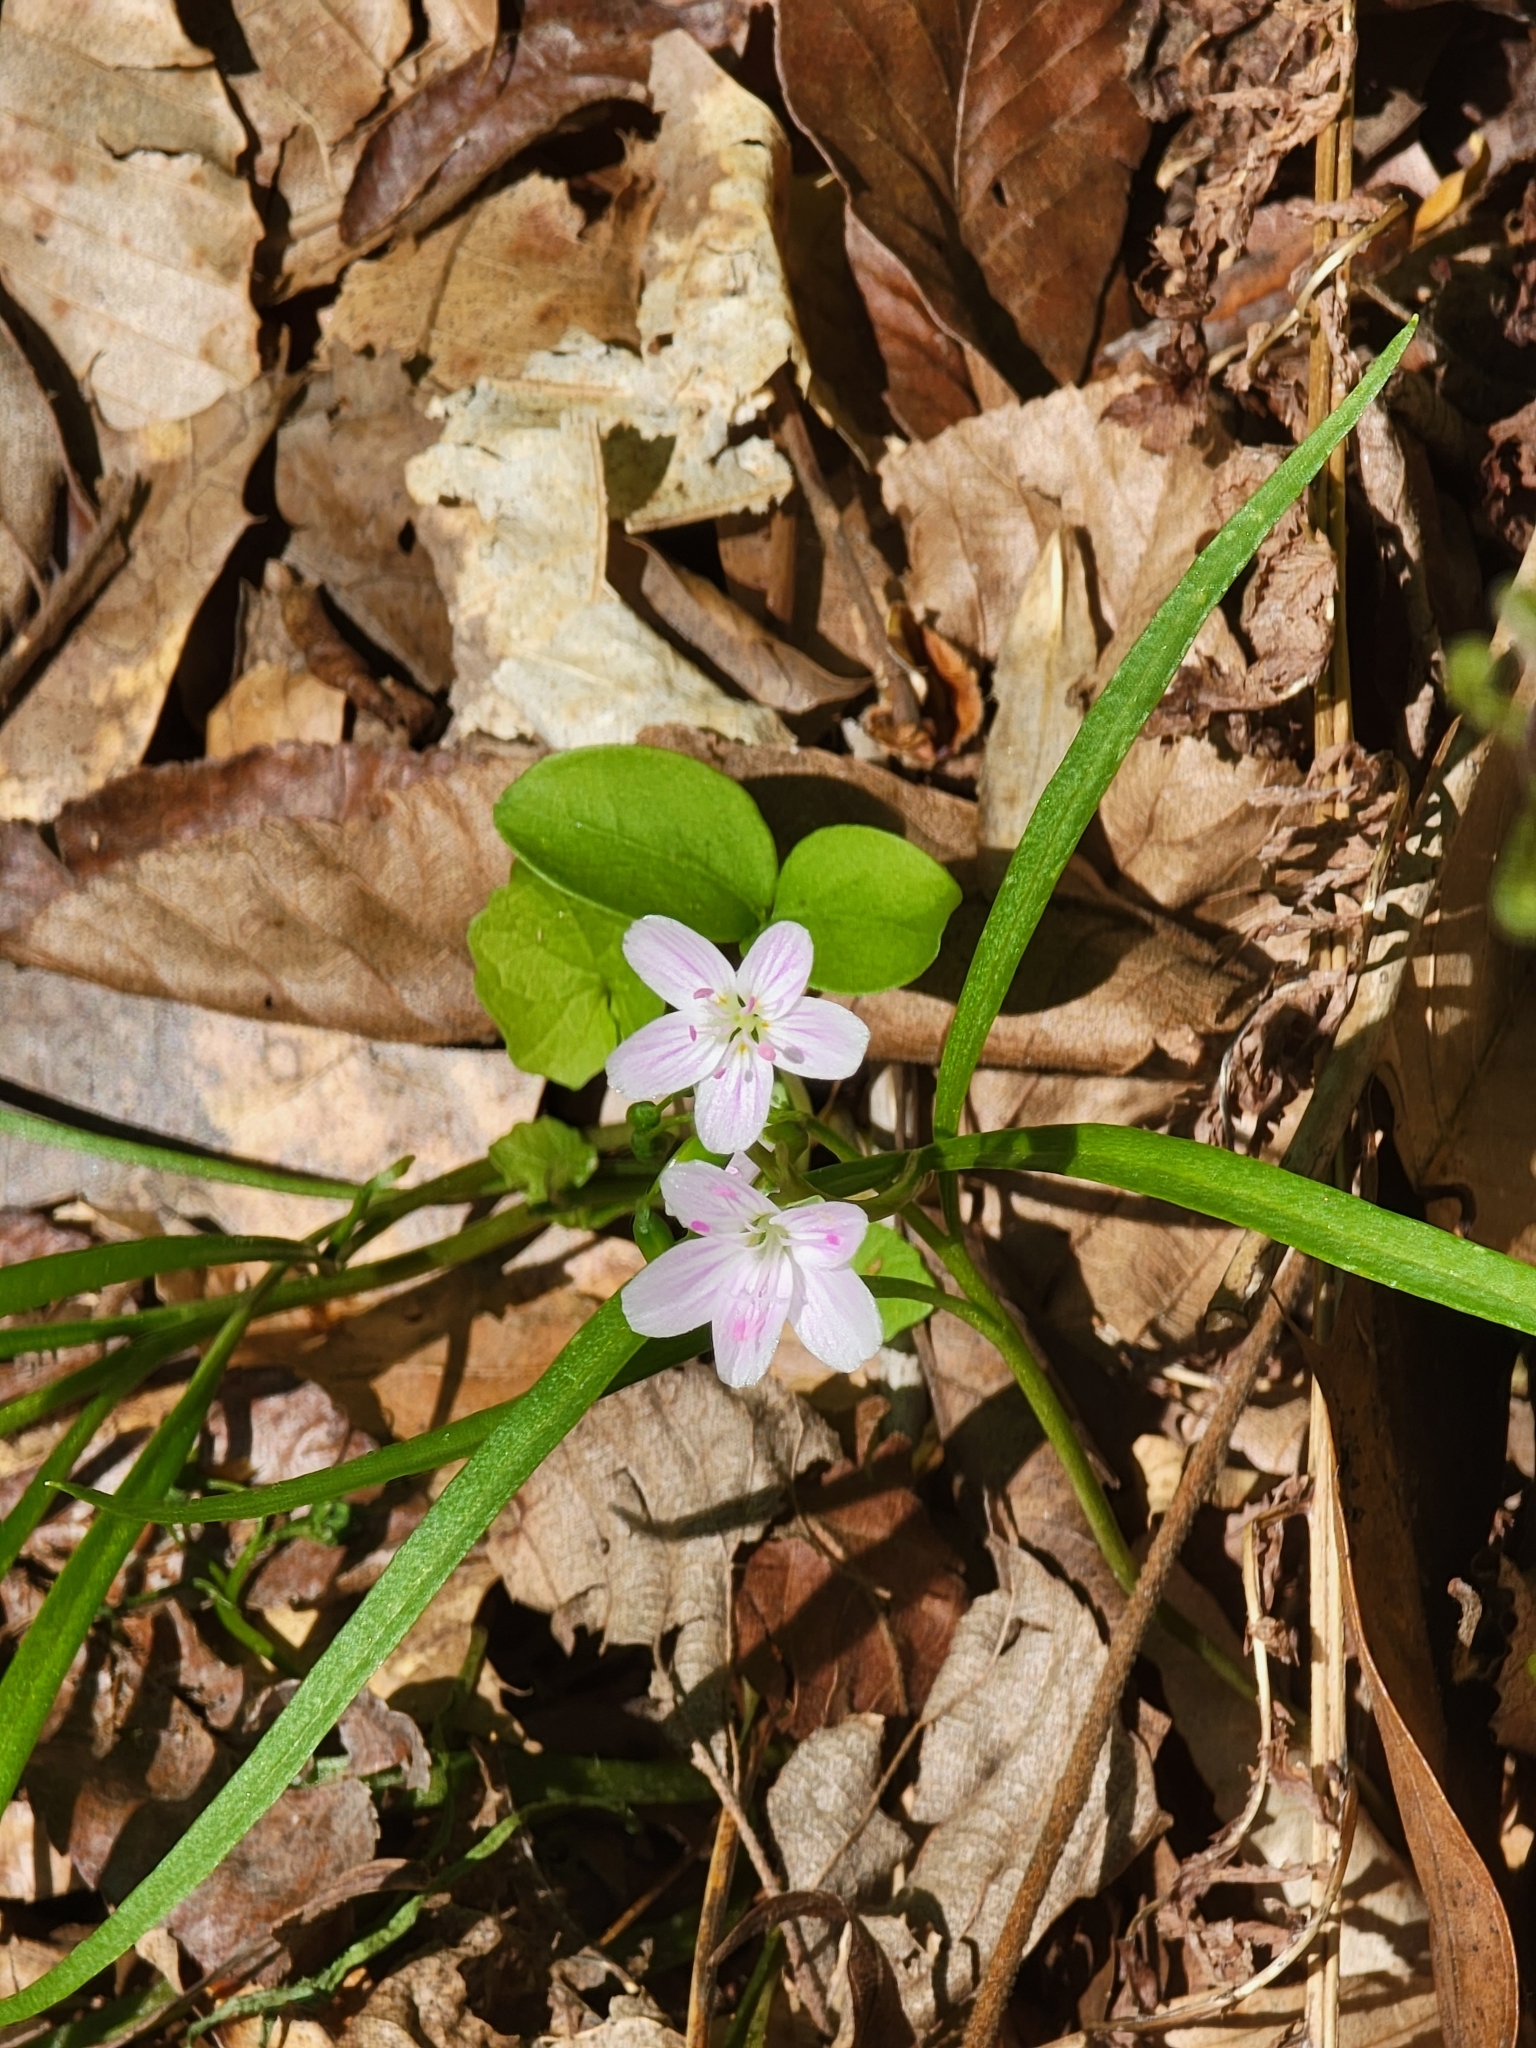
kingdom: Plantae
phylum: Tracheophyta
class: Magnoliopsida
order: Caryophyllales
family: Montiaceae
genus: Claytonia
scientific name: Claytonia virginica
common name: Virginia springbeauty
